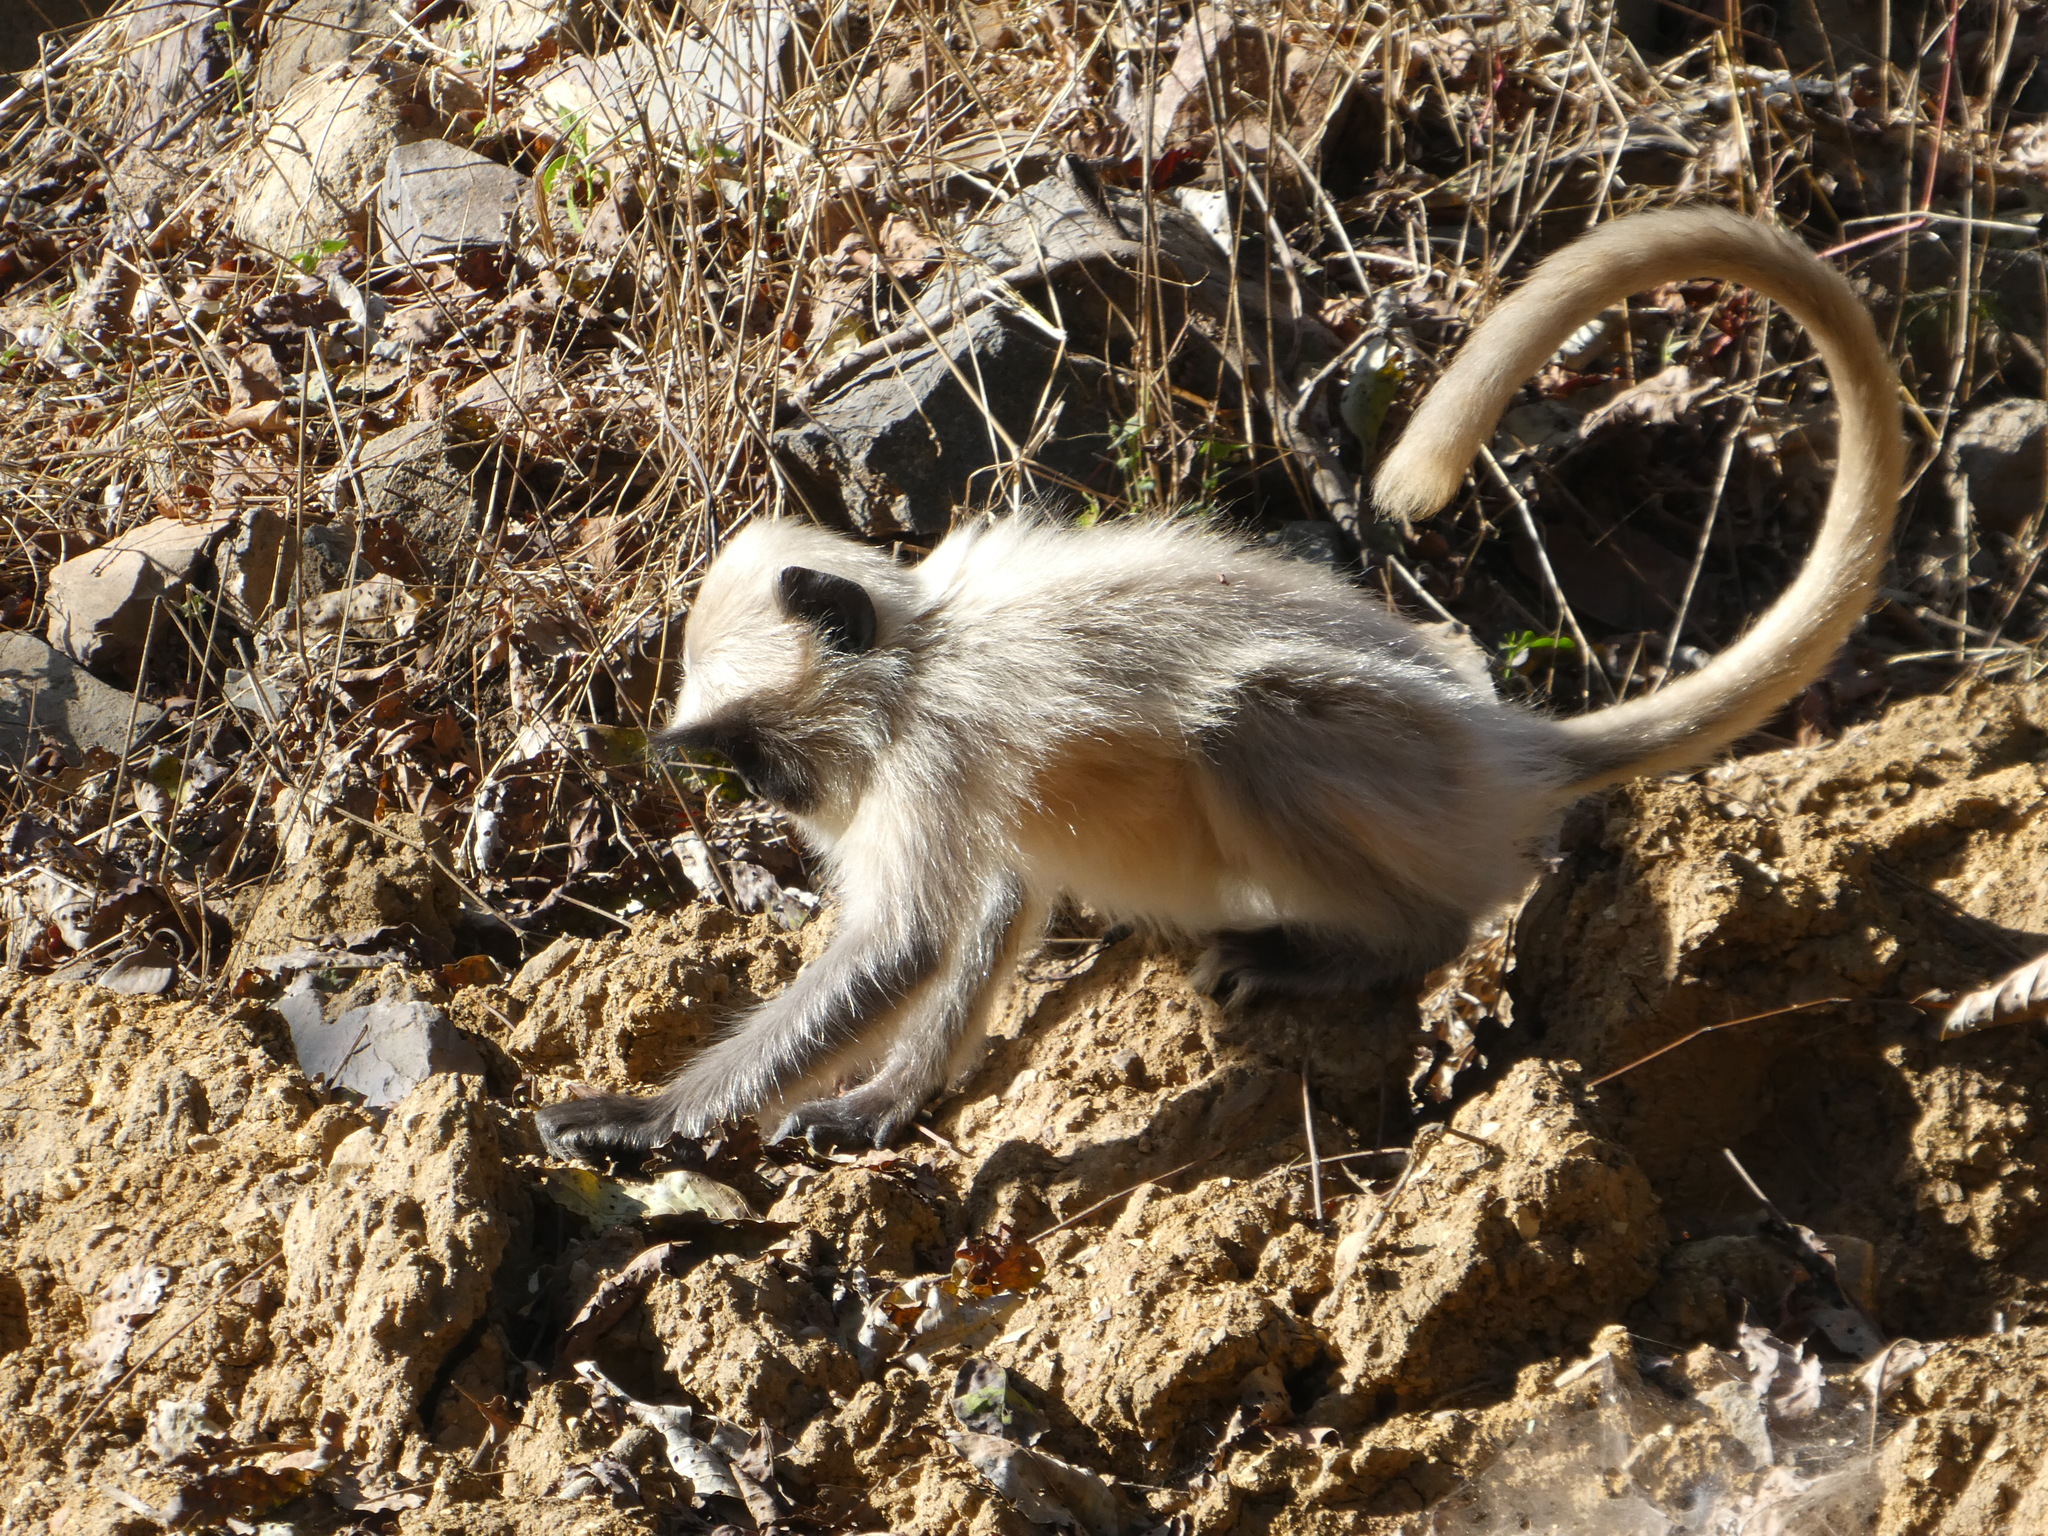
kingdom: Animalia
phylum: Chordata
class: Mammalia
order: Primates
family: Cercopithecidae
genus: Semnopithecus
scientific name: Semnopithecus entellus
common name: Northern plains gray langur
